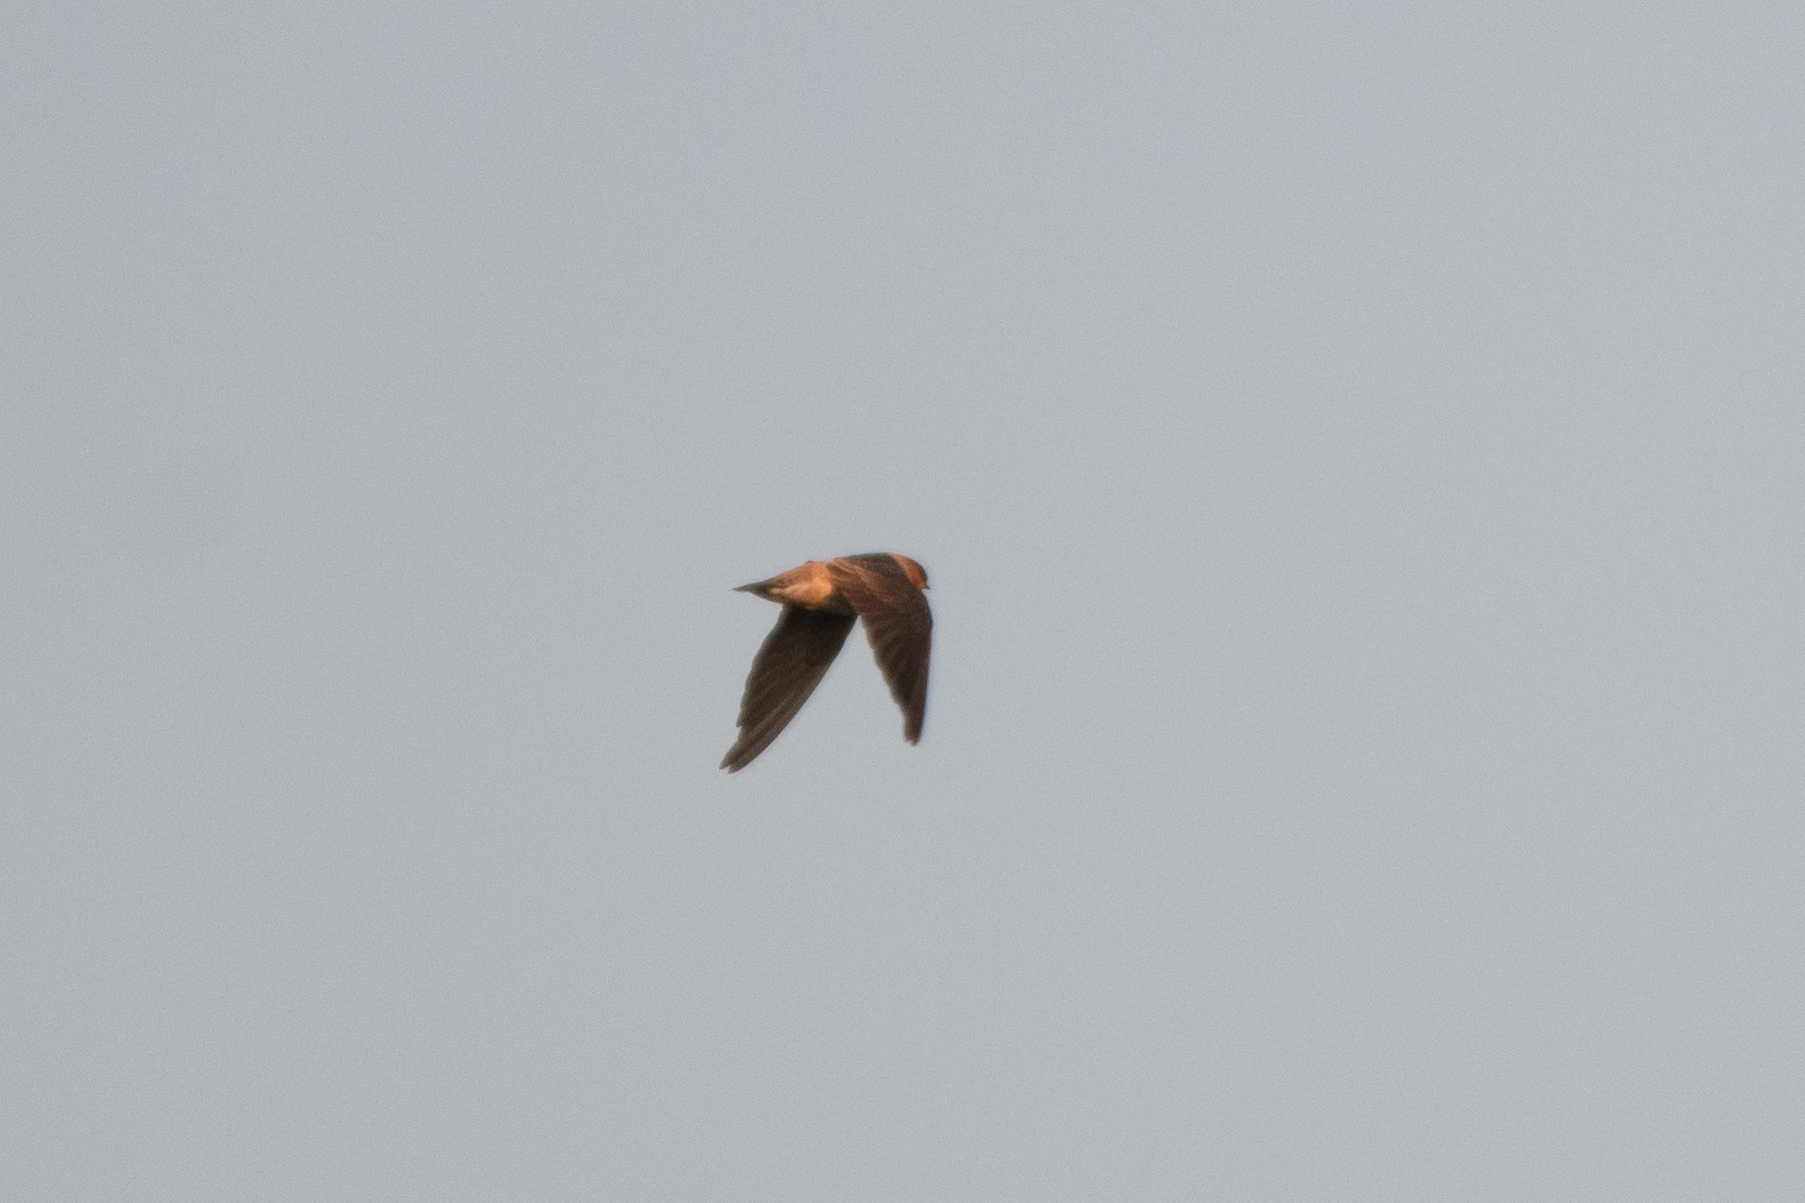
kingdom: Animalia
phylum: Chordata
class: Aves
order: Passeriformes
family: Hirundinidae
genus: Petrochelidon
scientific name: Petrochelidon fulva
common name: Cave swallow
